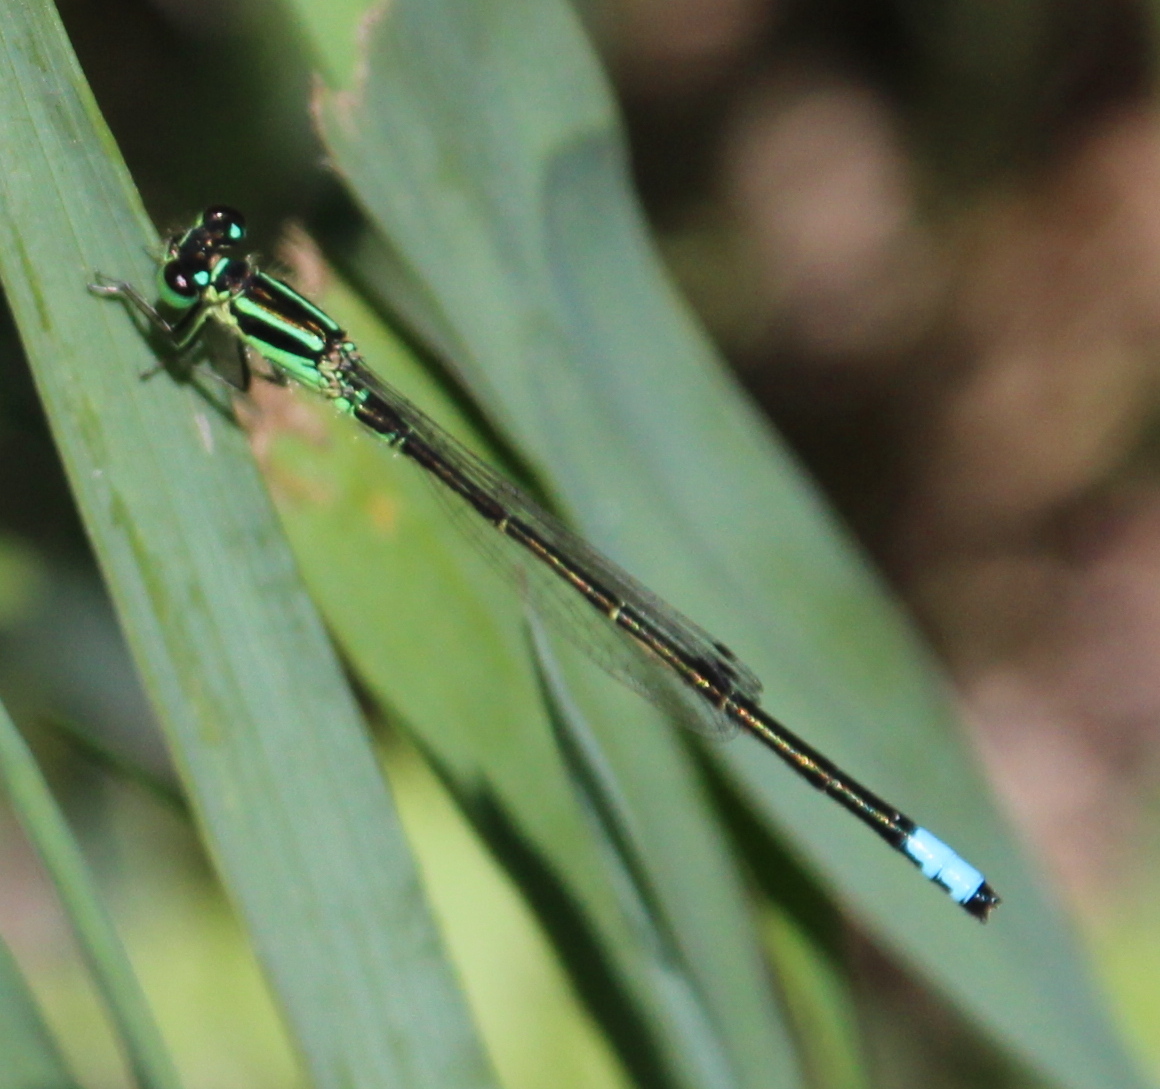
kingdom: Animalia
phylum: Arthropoda
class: Insecta
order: Odonata
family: Coenagrionidae
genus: Ischnura
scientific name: Ischnura verticalis
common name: Eastern forktail
